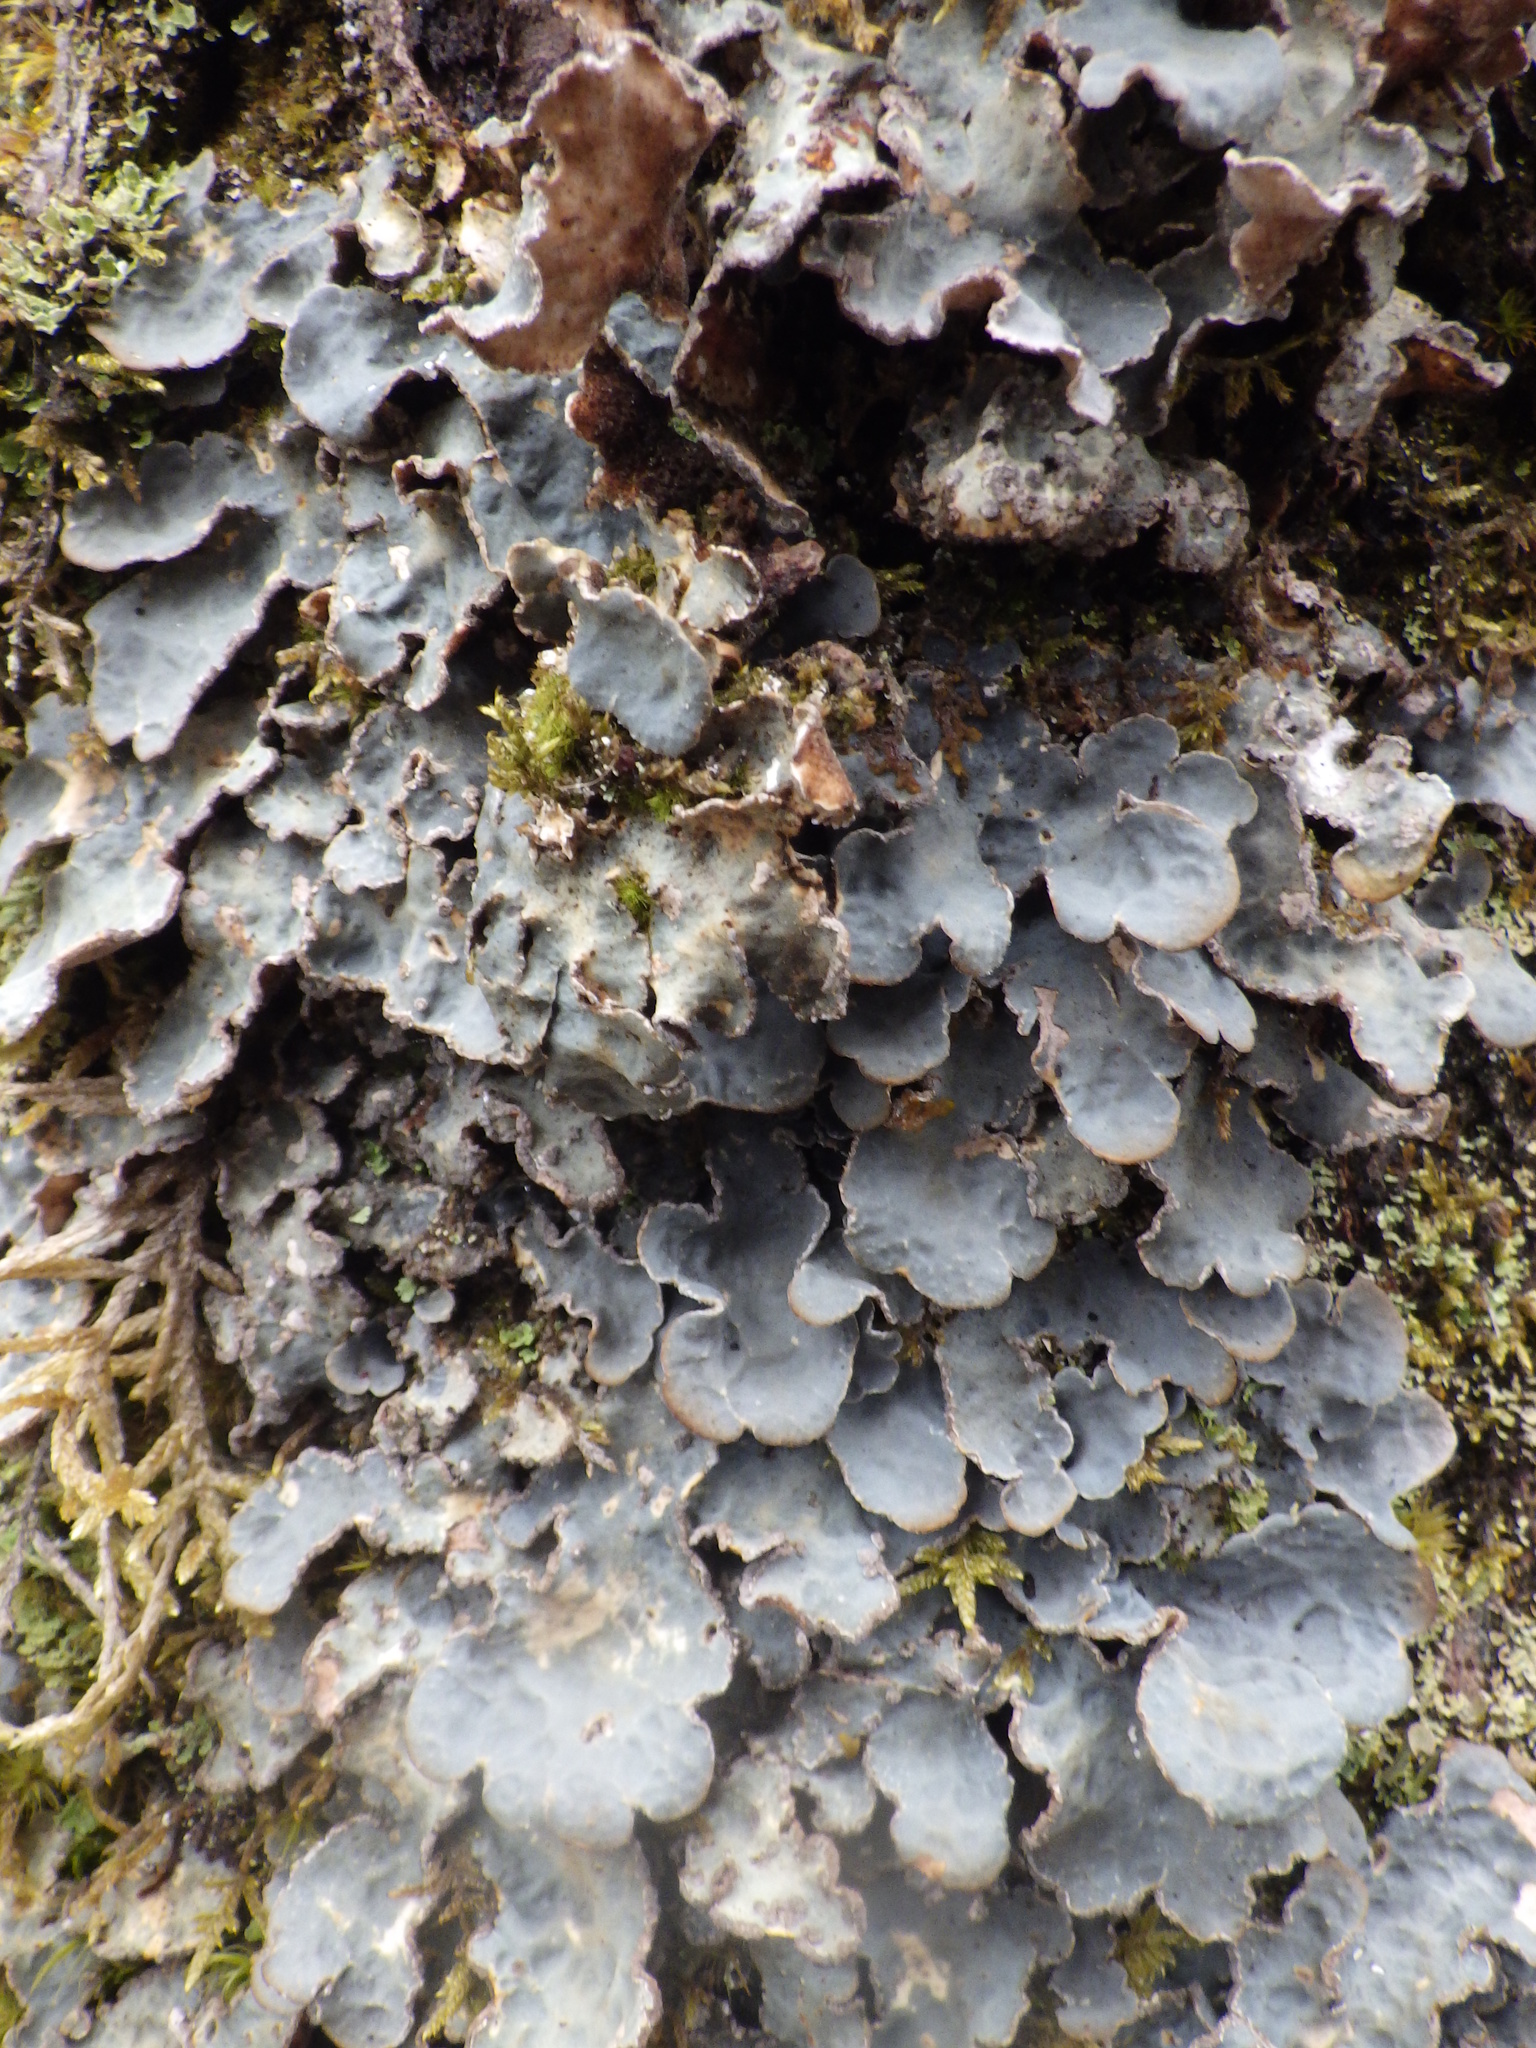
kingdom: Fungi
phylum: Ascomycota
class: Lecanoromycetes
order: Peltigerales
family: Lobariaceae
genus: Lobarina
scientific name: Lobarina scrobiculata
